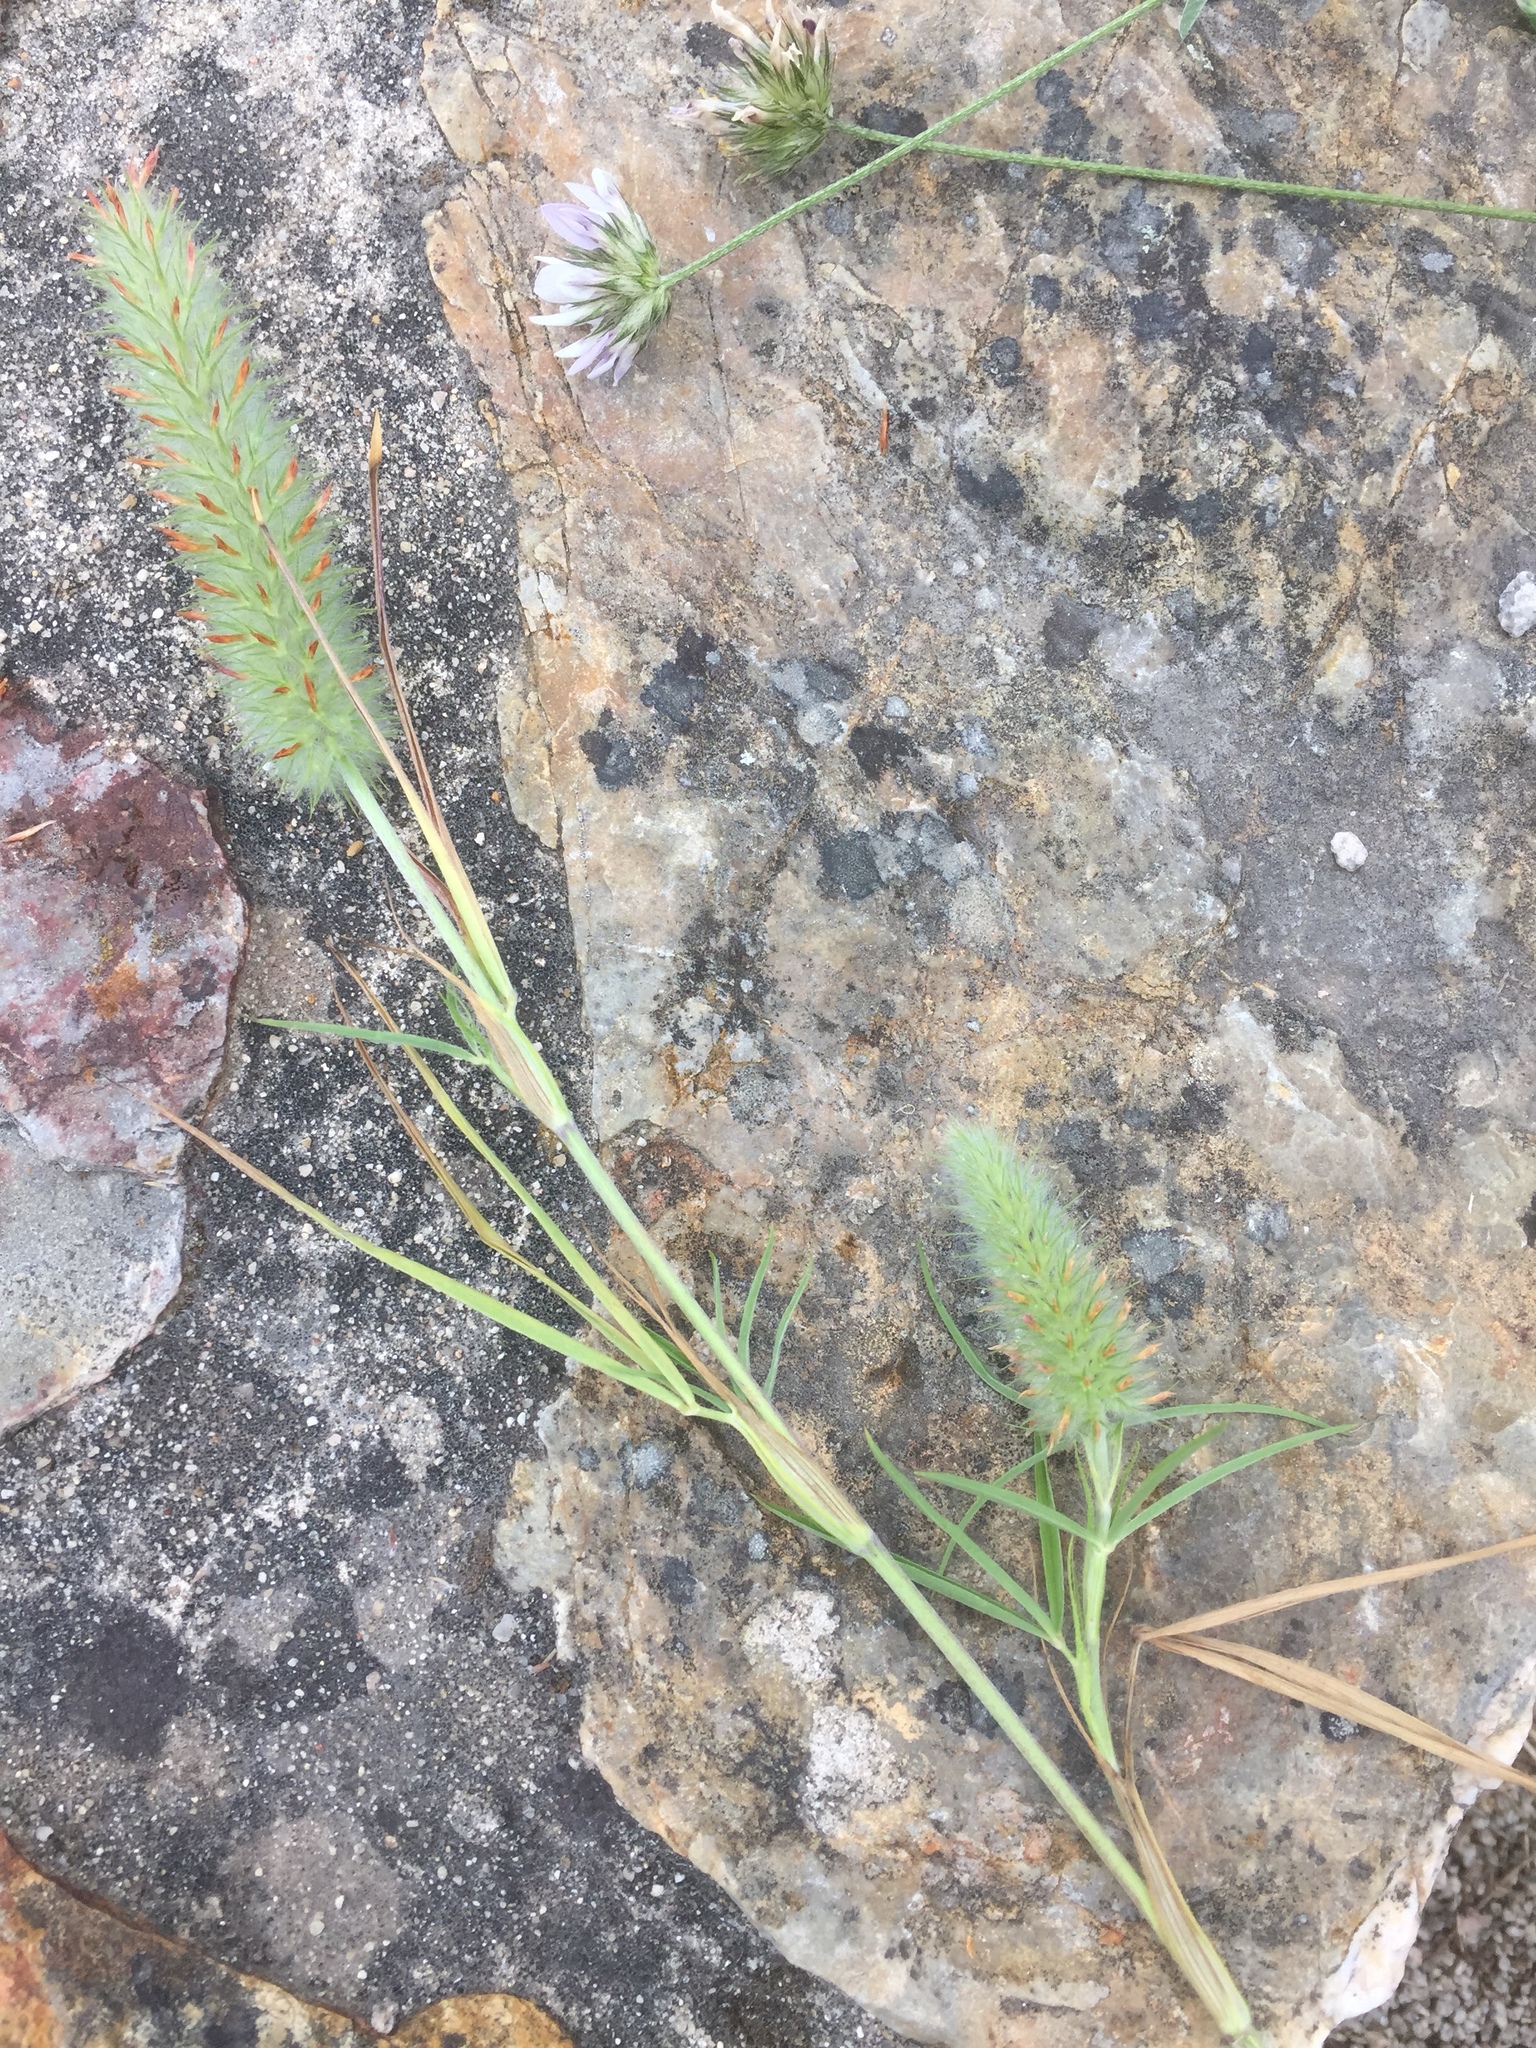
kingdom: Plantae
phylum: Tracheophyta
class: Magnoliopsida
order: Fabales
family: Fabaceae
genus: Trifolium
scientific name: Trifolium angustifolium
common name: Narrow clover
